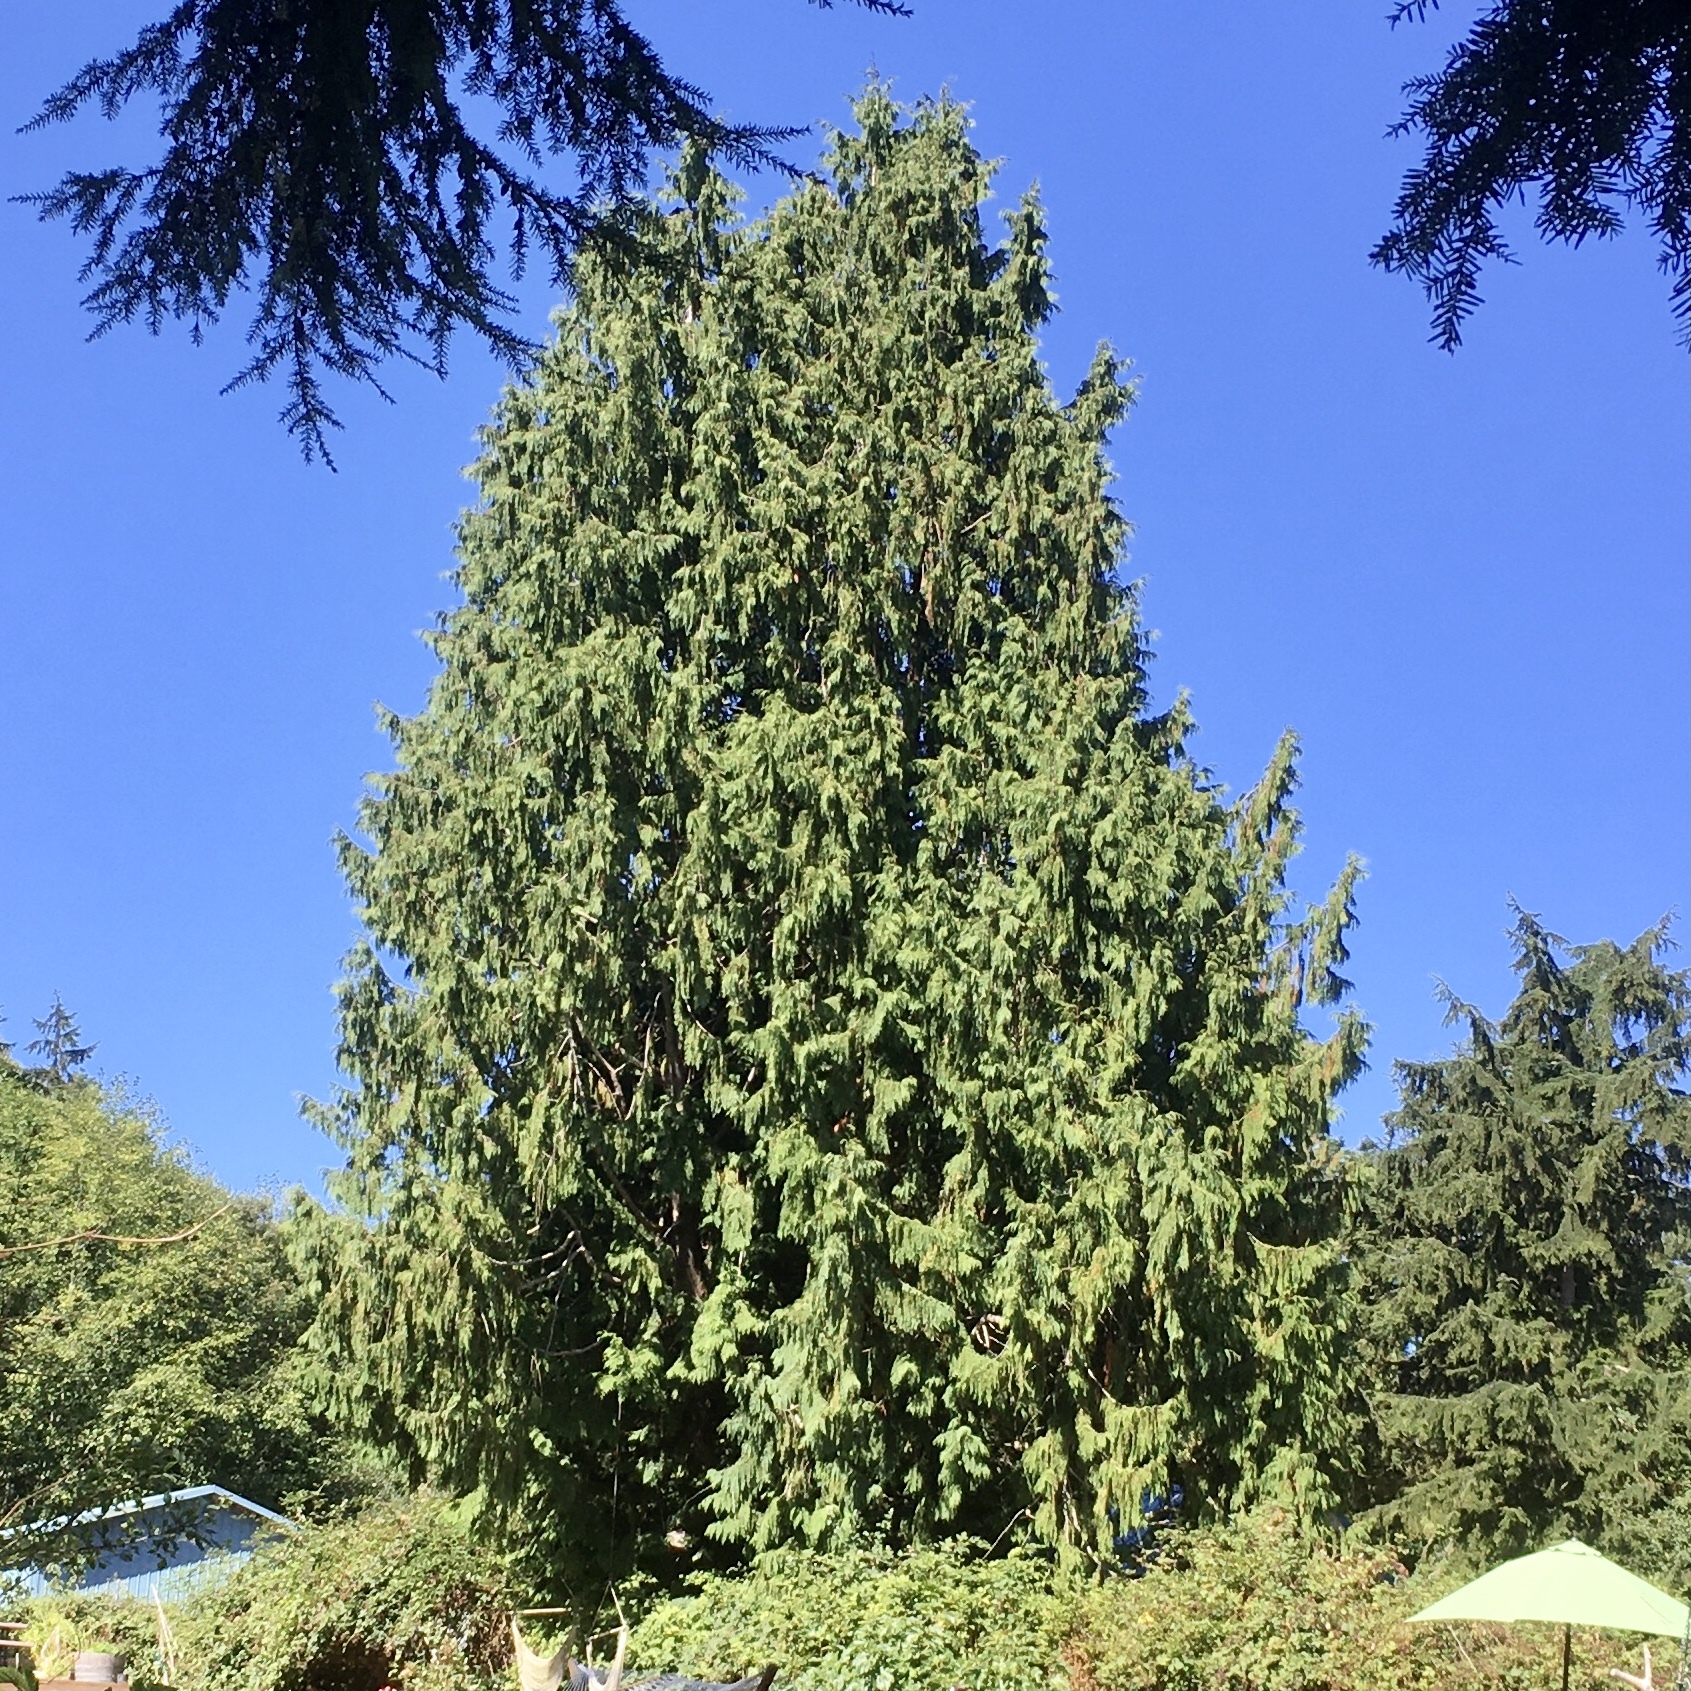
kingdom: Plantae
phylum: Tracheophyta
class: Pinopsida
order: Pinales
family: Cupressaceae
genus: Thuja
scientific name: Thuja plicata
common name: Western red-cedar
